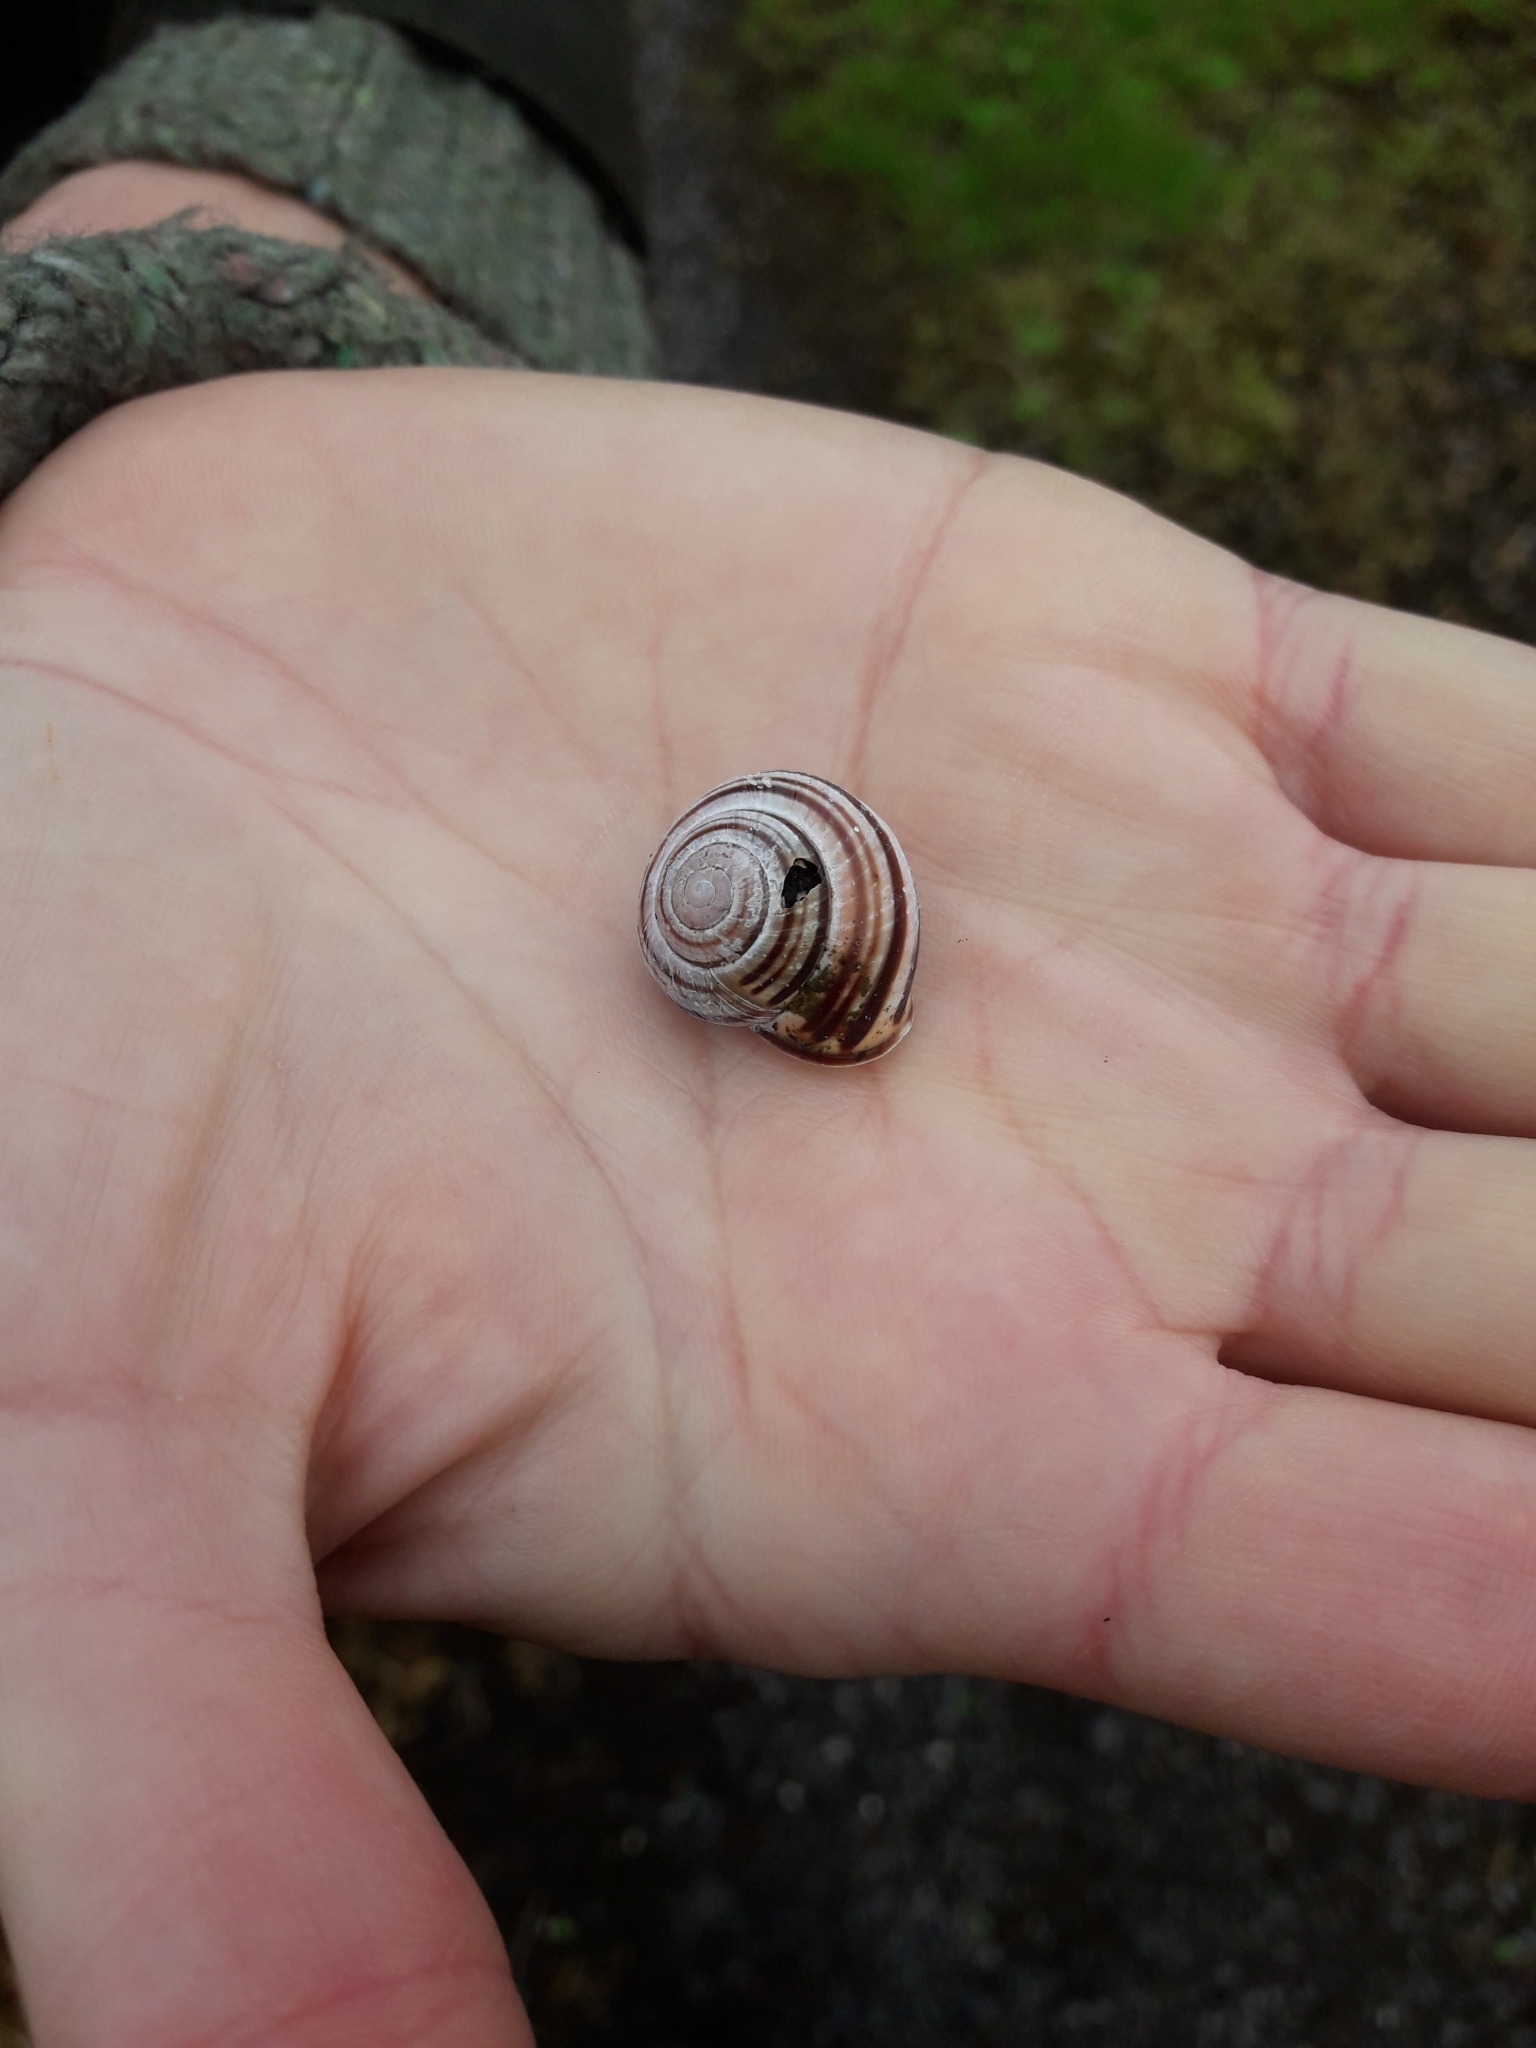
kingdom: Animalia
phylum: Mollusca
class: Gastropoda
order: Stylommatophora
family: Helicidae
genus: Cepaea
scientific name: Cepaea nemoralis
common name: Grovesnail
